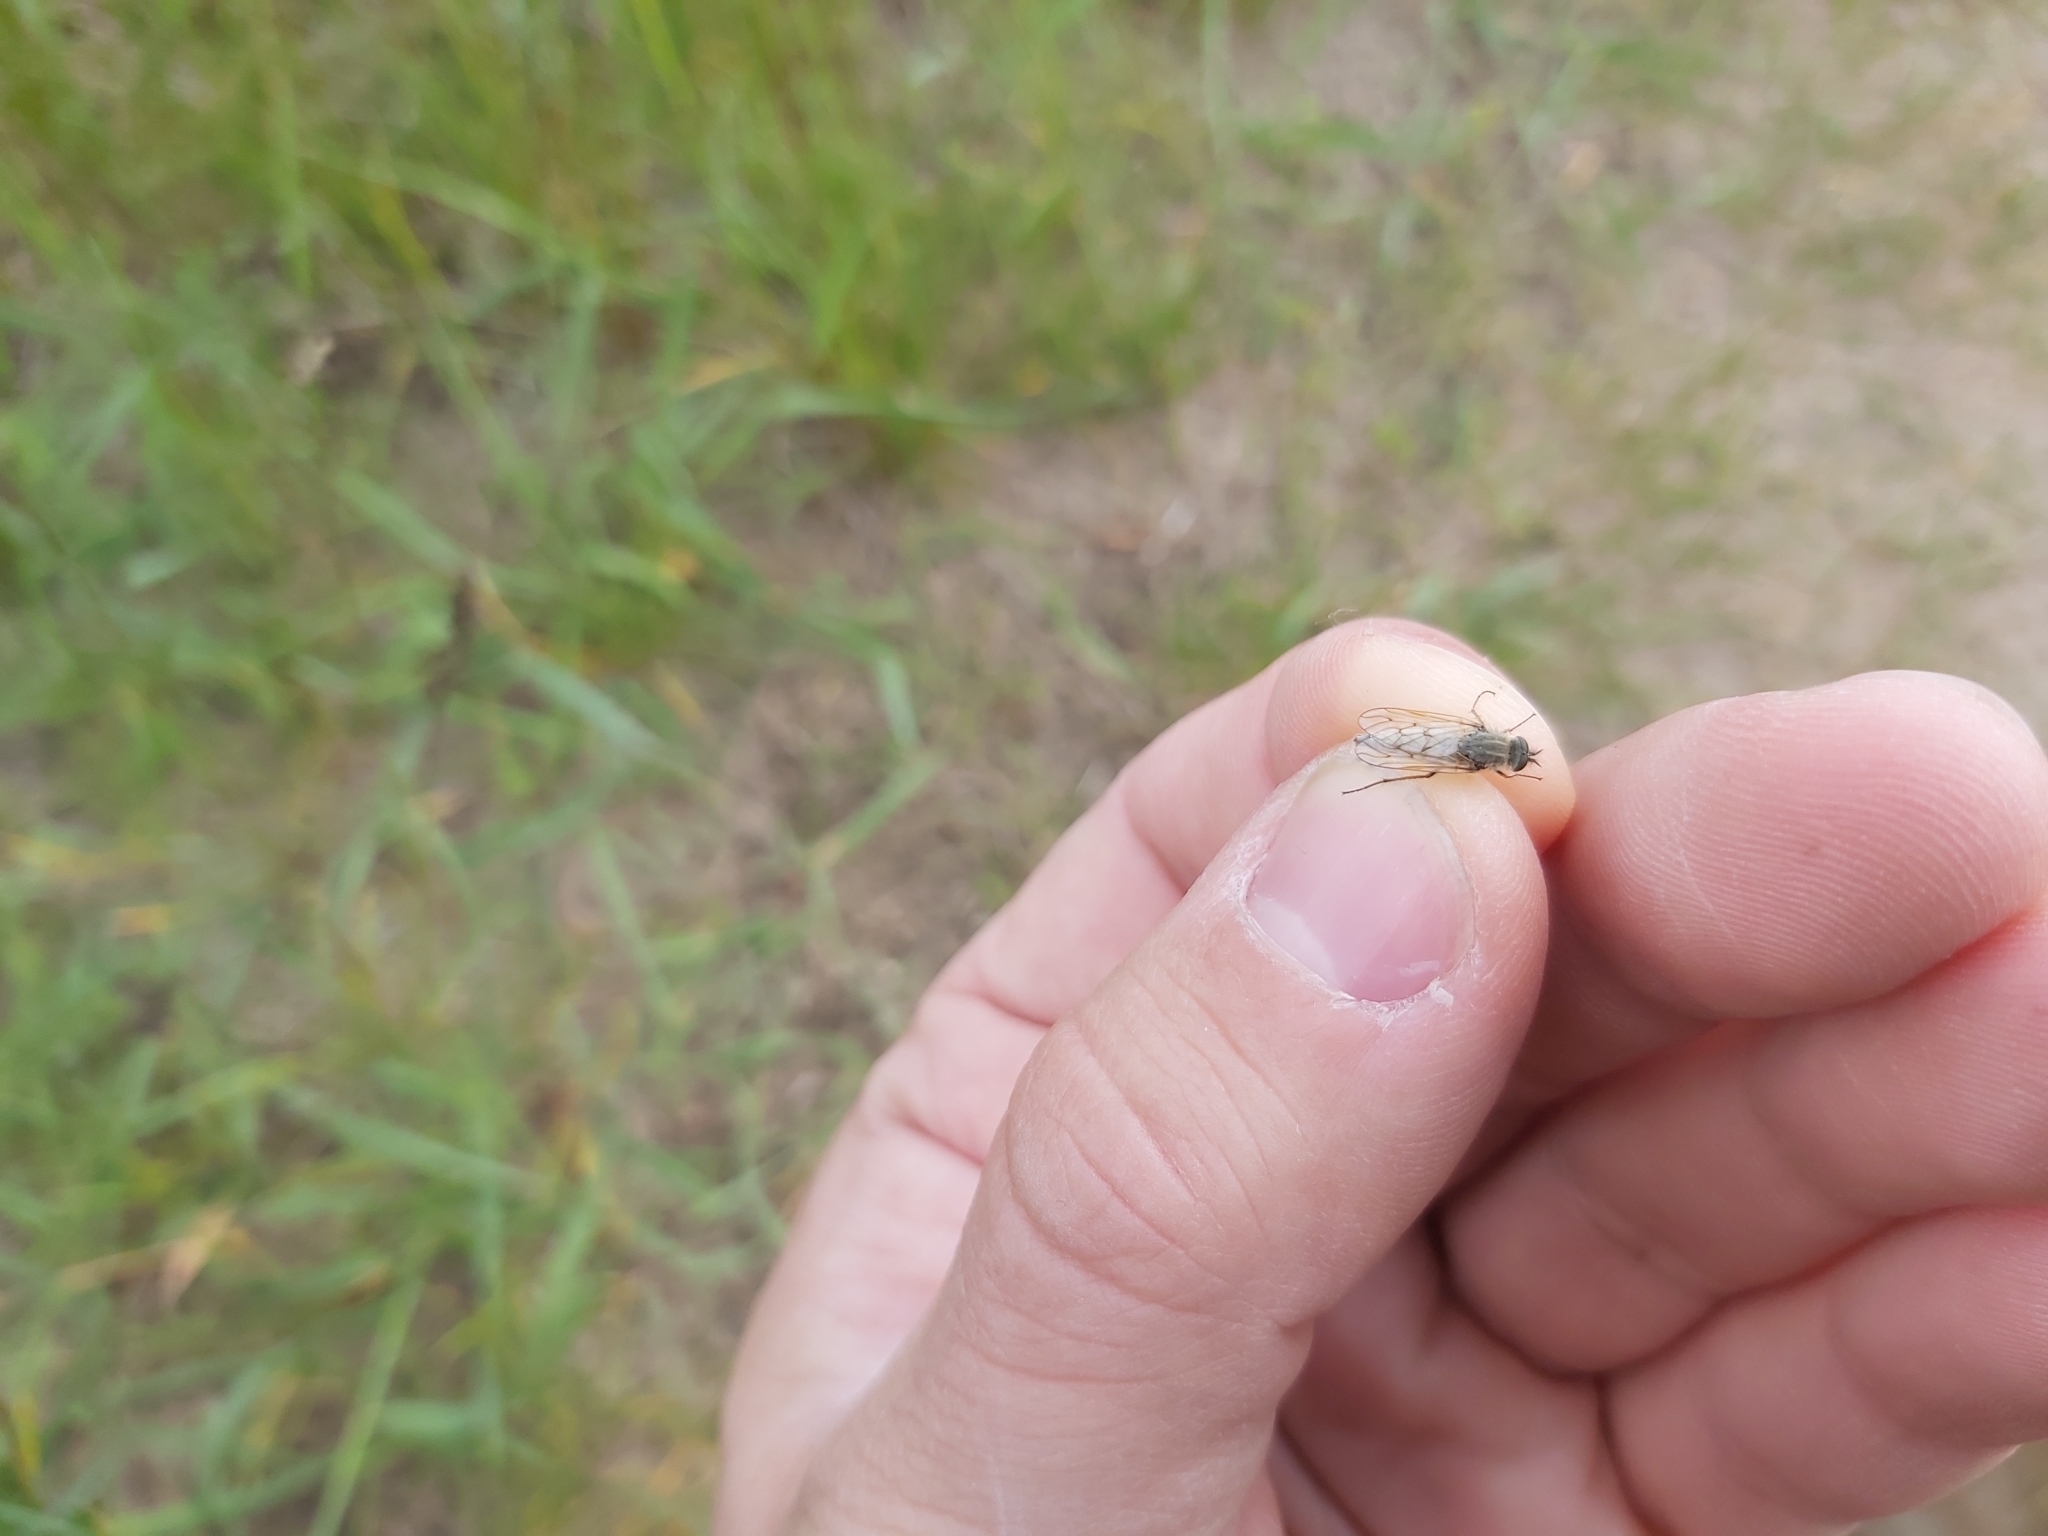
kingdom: Animalia
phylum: Arthropoda
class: Insecta
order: Diptera
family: Therevidae
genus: Dialineura
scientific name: Dialineura anilis
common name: Swollen silver-stiletto
